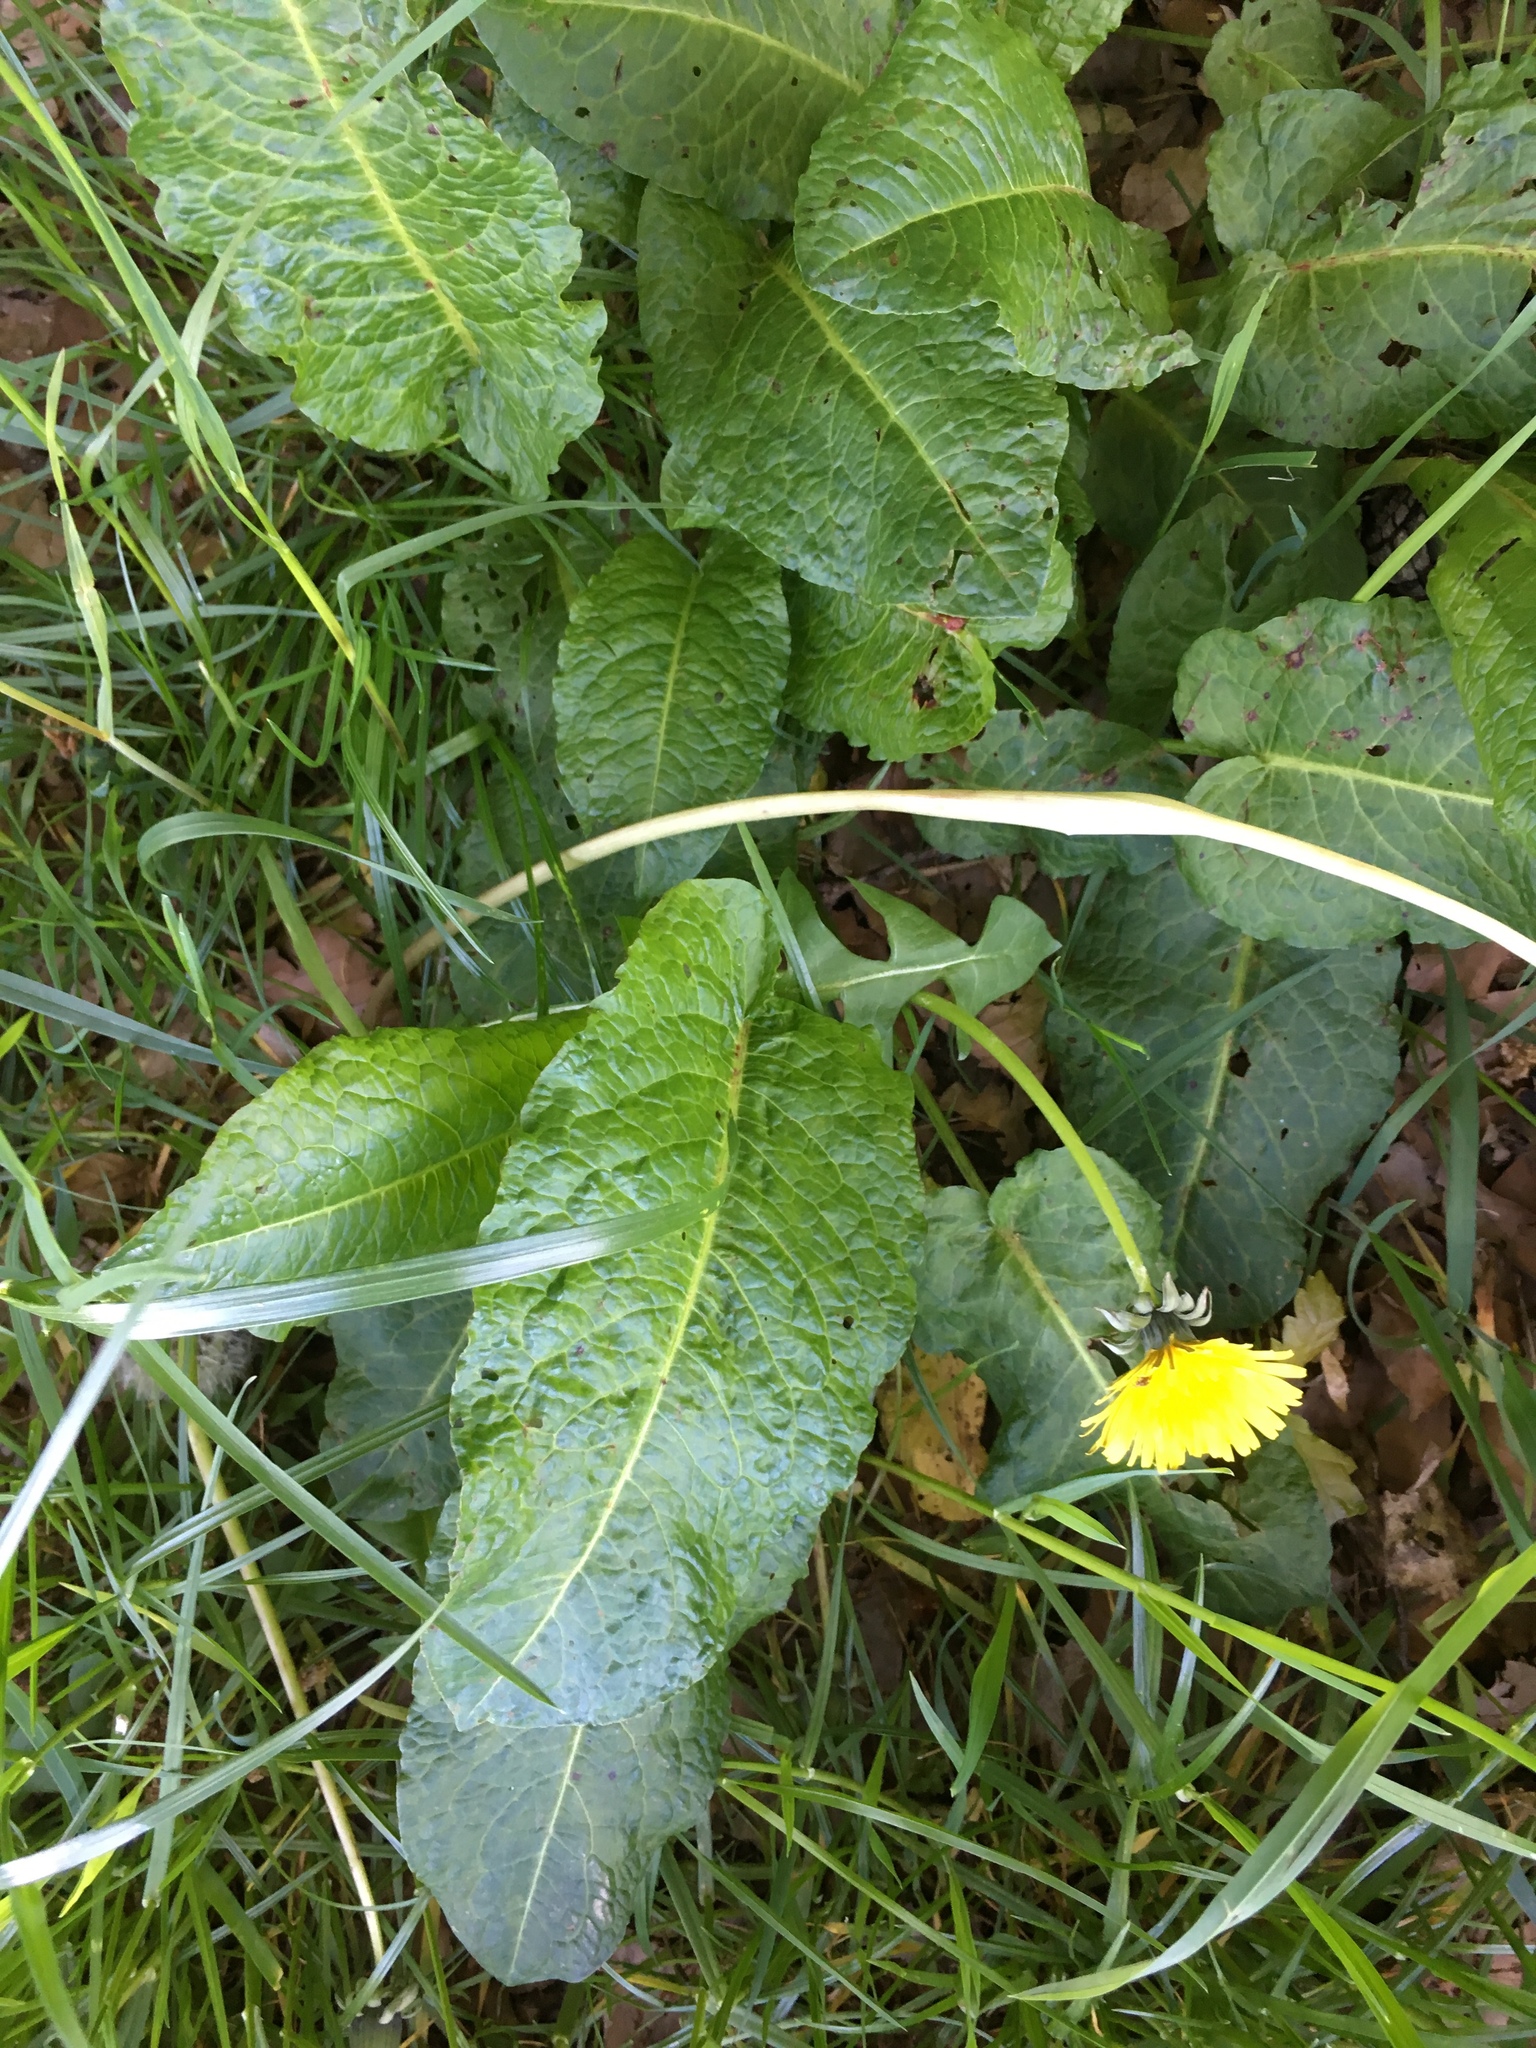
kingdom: Plantae
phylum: Tracheophyta
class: Magnoliopsida
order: Caryophyllales
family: Polygonaceae
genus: Rumex
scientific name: Rumex obtusifolius
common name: Bitter dock
